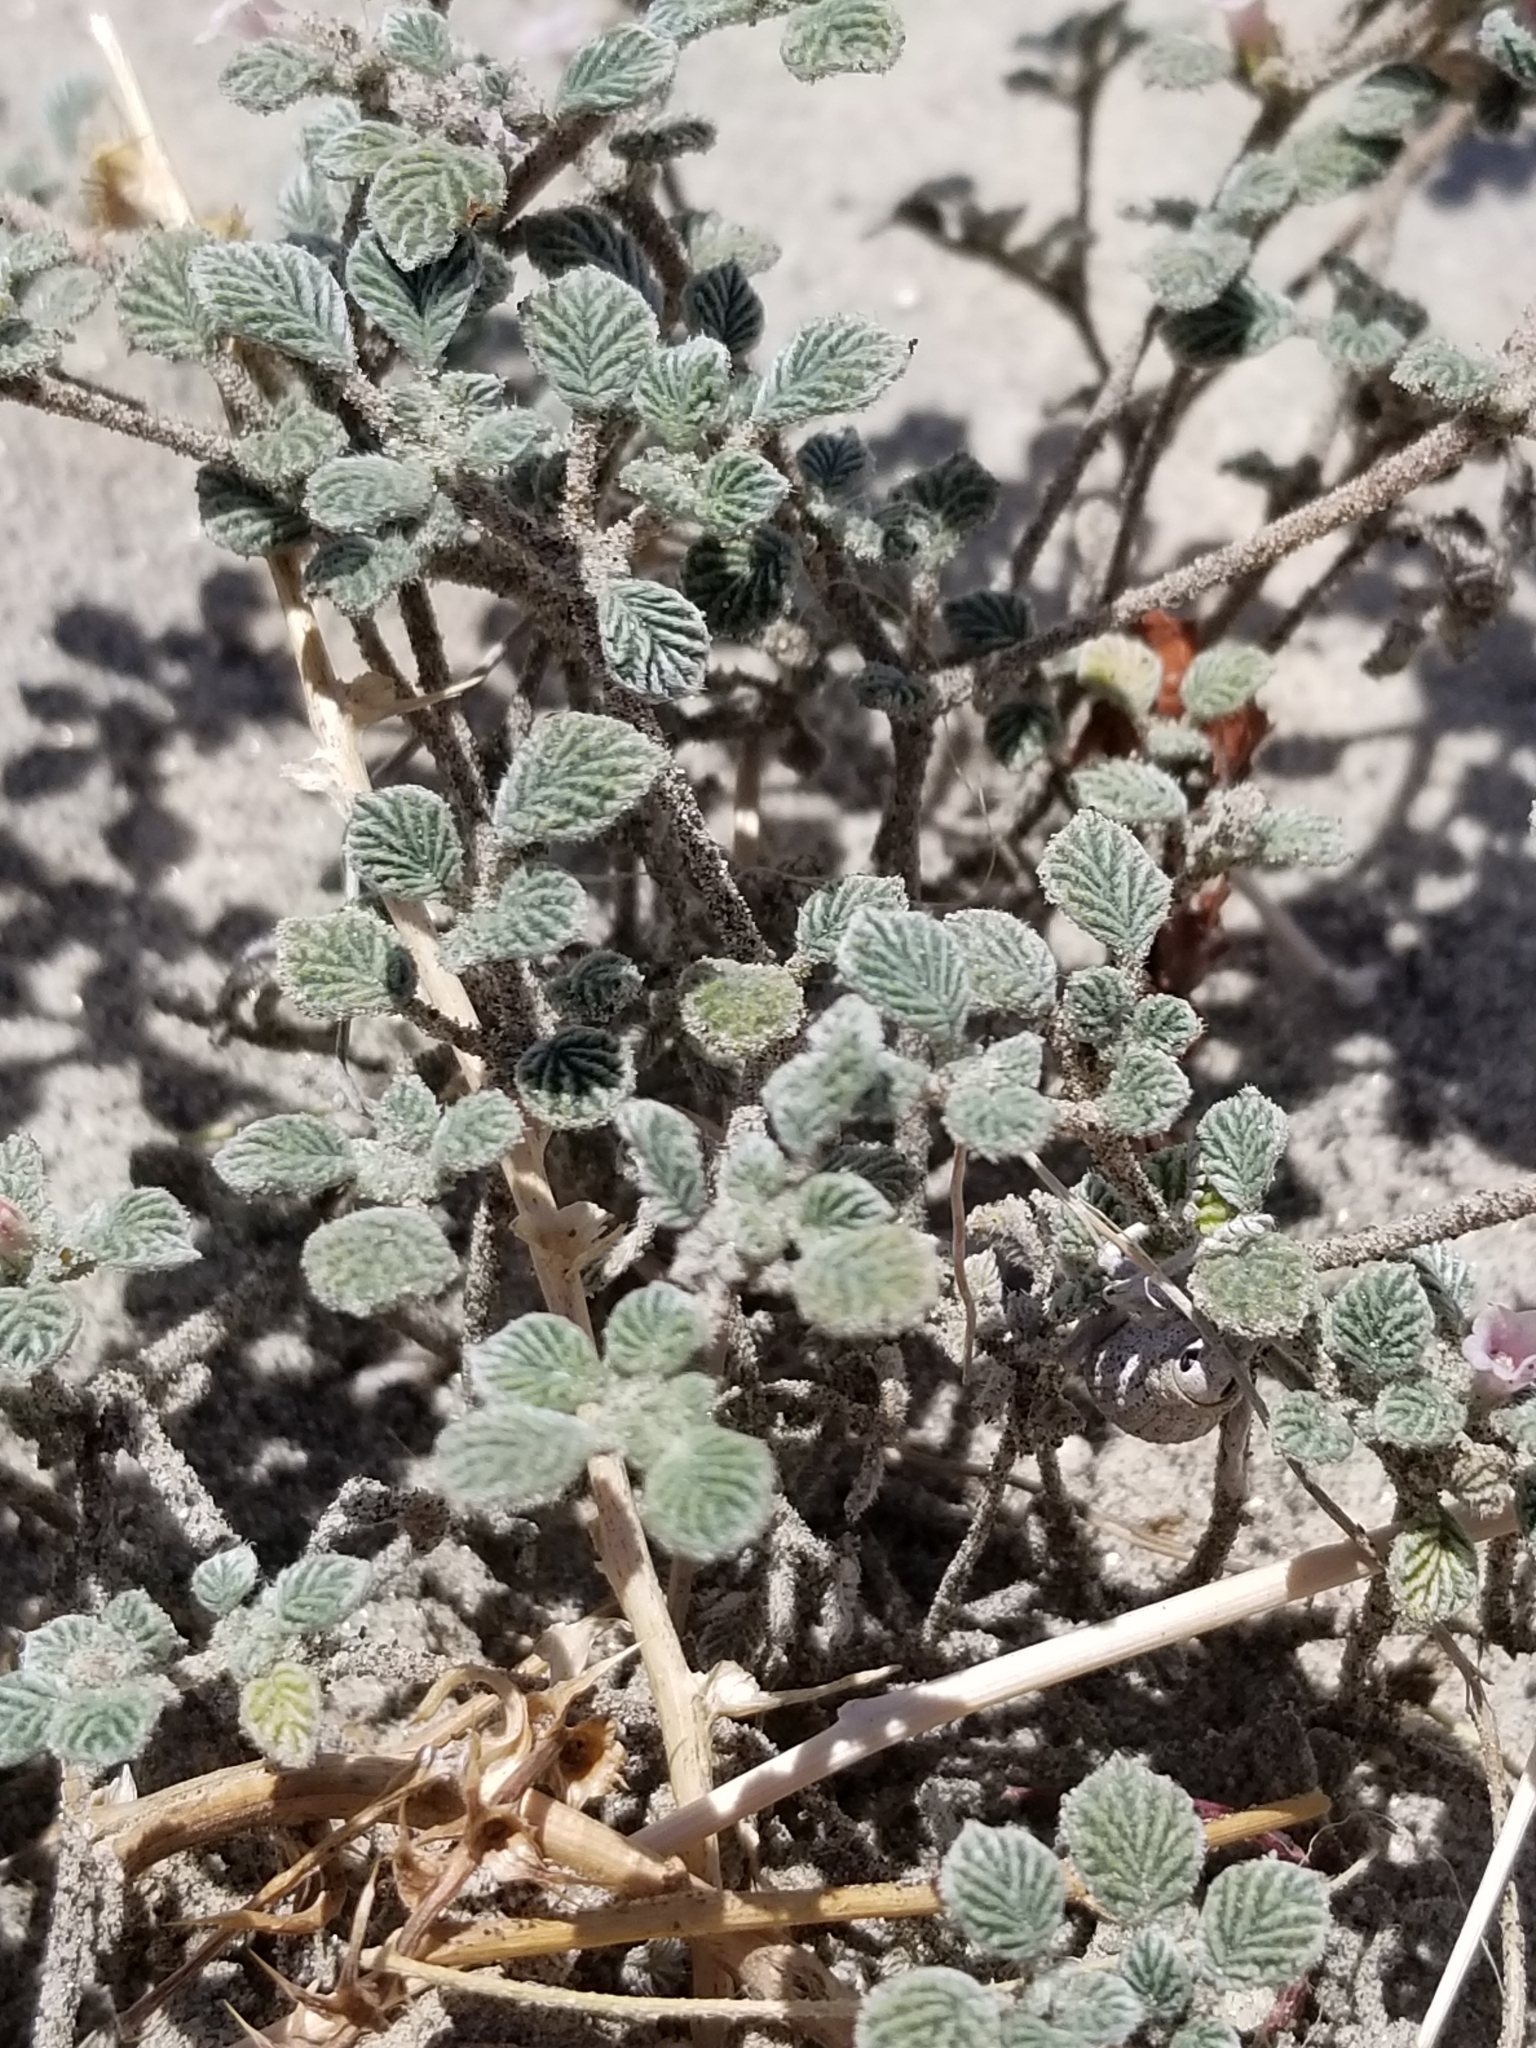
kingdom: Plantae
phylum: Tracheophyta
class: Magnoliopsida
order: Boraginales
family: Ehretiaceae
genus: Tiquilia
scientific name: Tiquilia plicata
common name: Fan-leaf tiquilia
